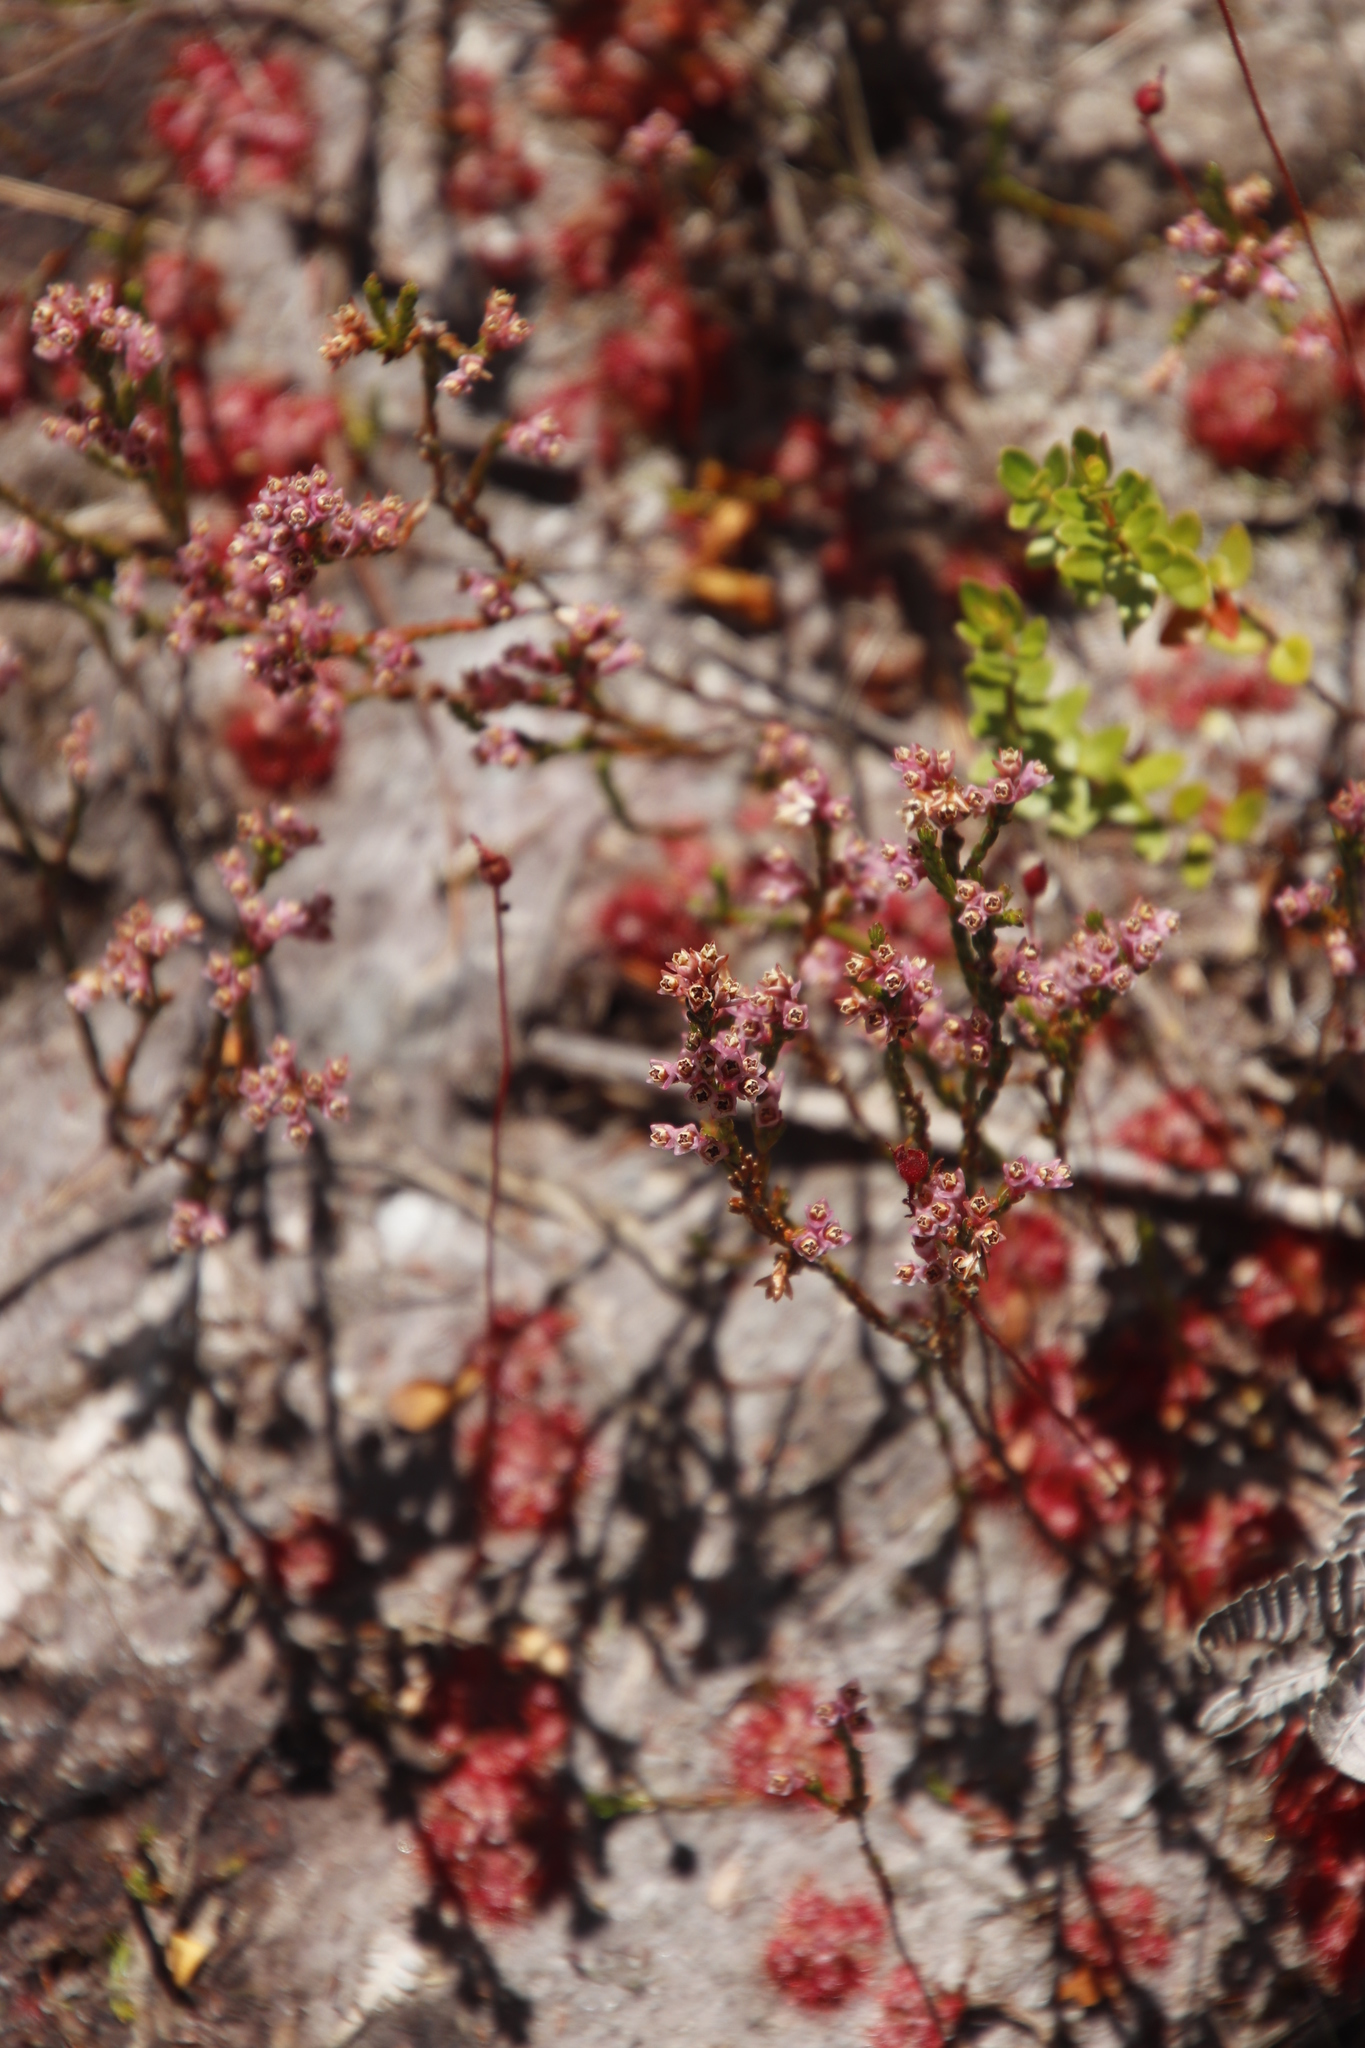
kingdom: Plantae
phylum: Tracheophyta
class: Magnoliopsida
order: Ericales
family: Ericaceae
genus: Erica
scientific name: Erica gnaphaloides
